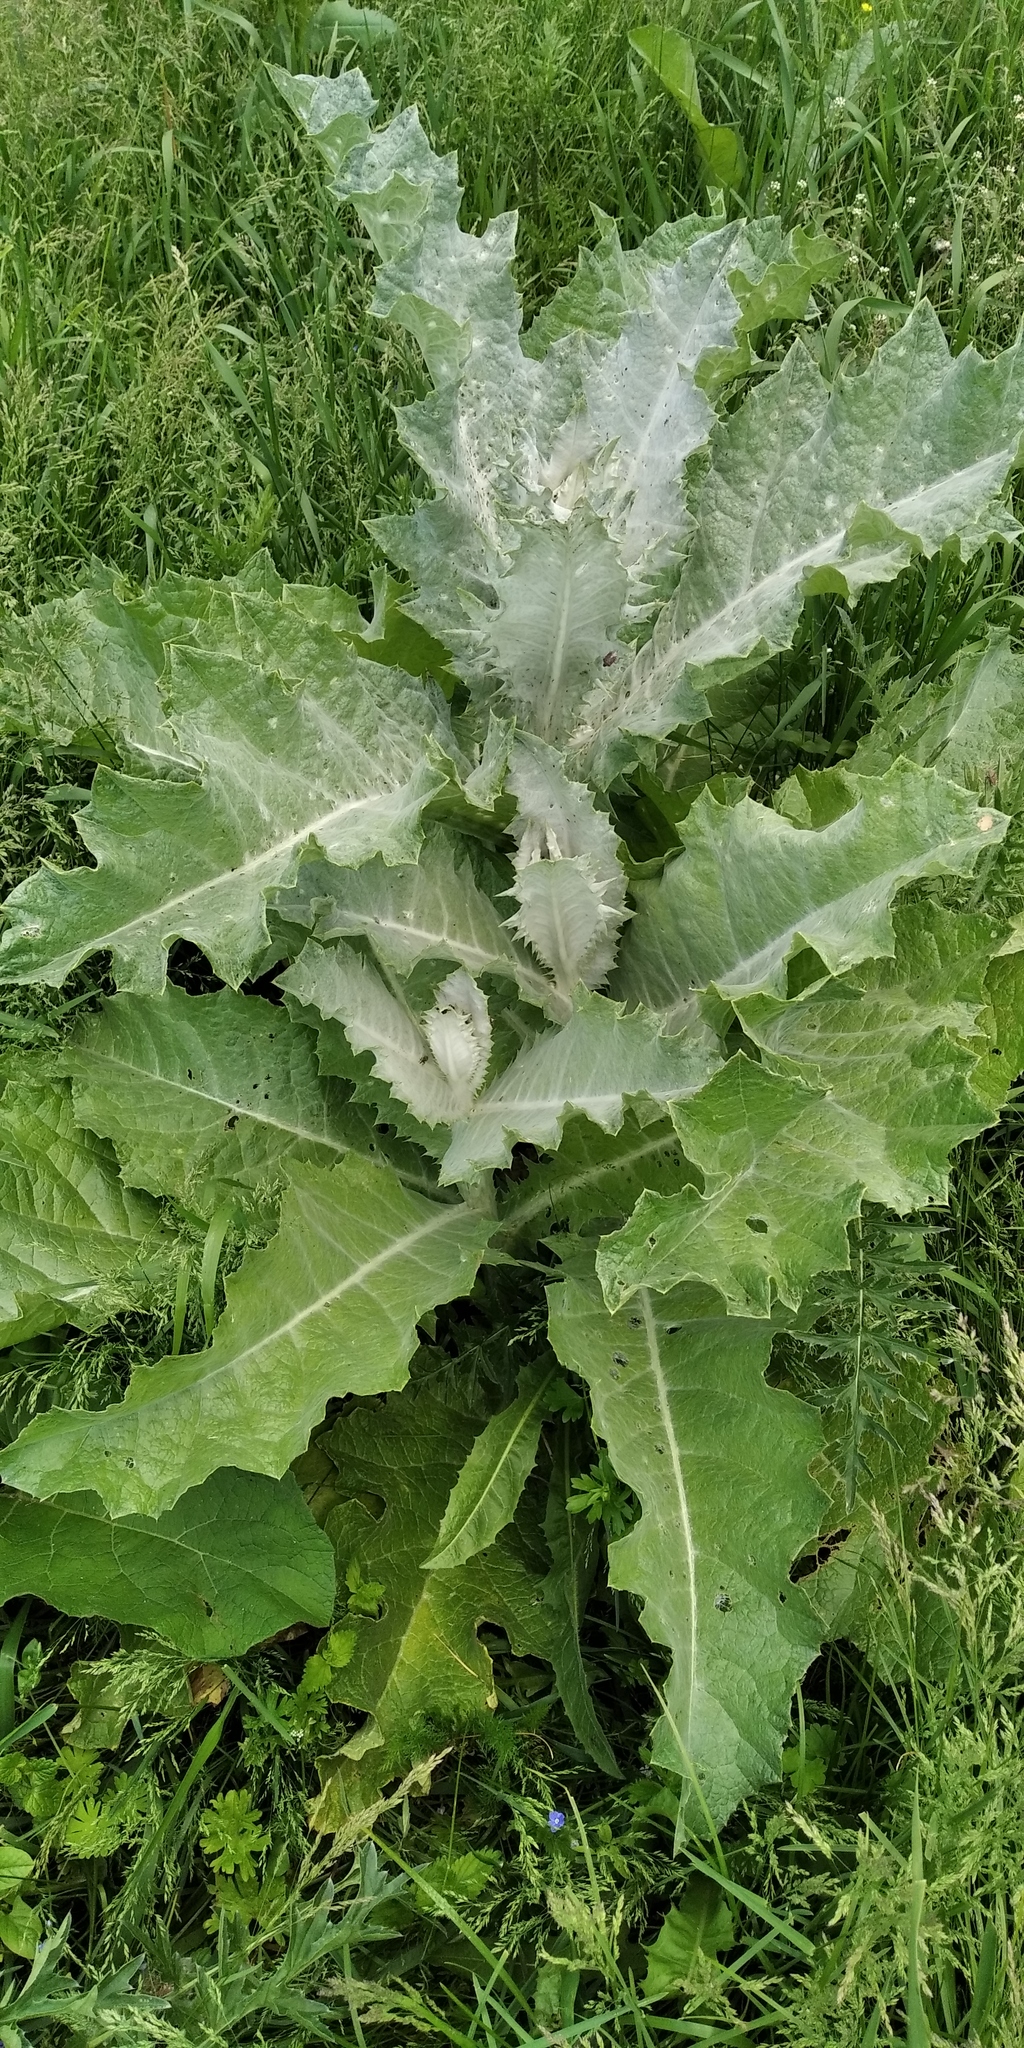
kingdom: Plantae
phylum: Tracheophyta
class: Magnoliopsida
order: Asterales
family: Asteraceae
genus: Onopordum
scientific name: Onopordum acanthium
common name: Scotch thistle
